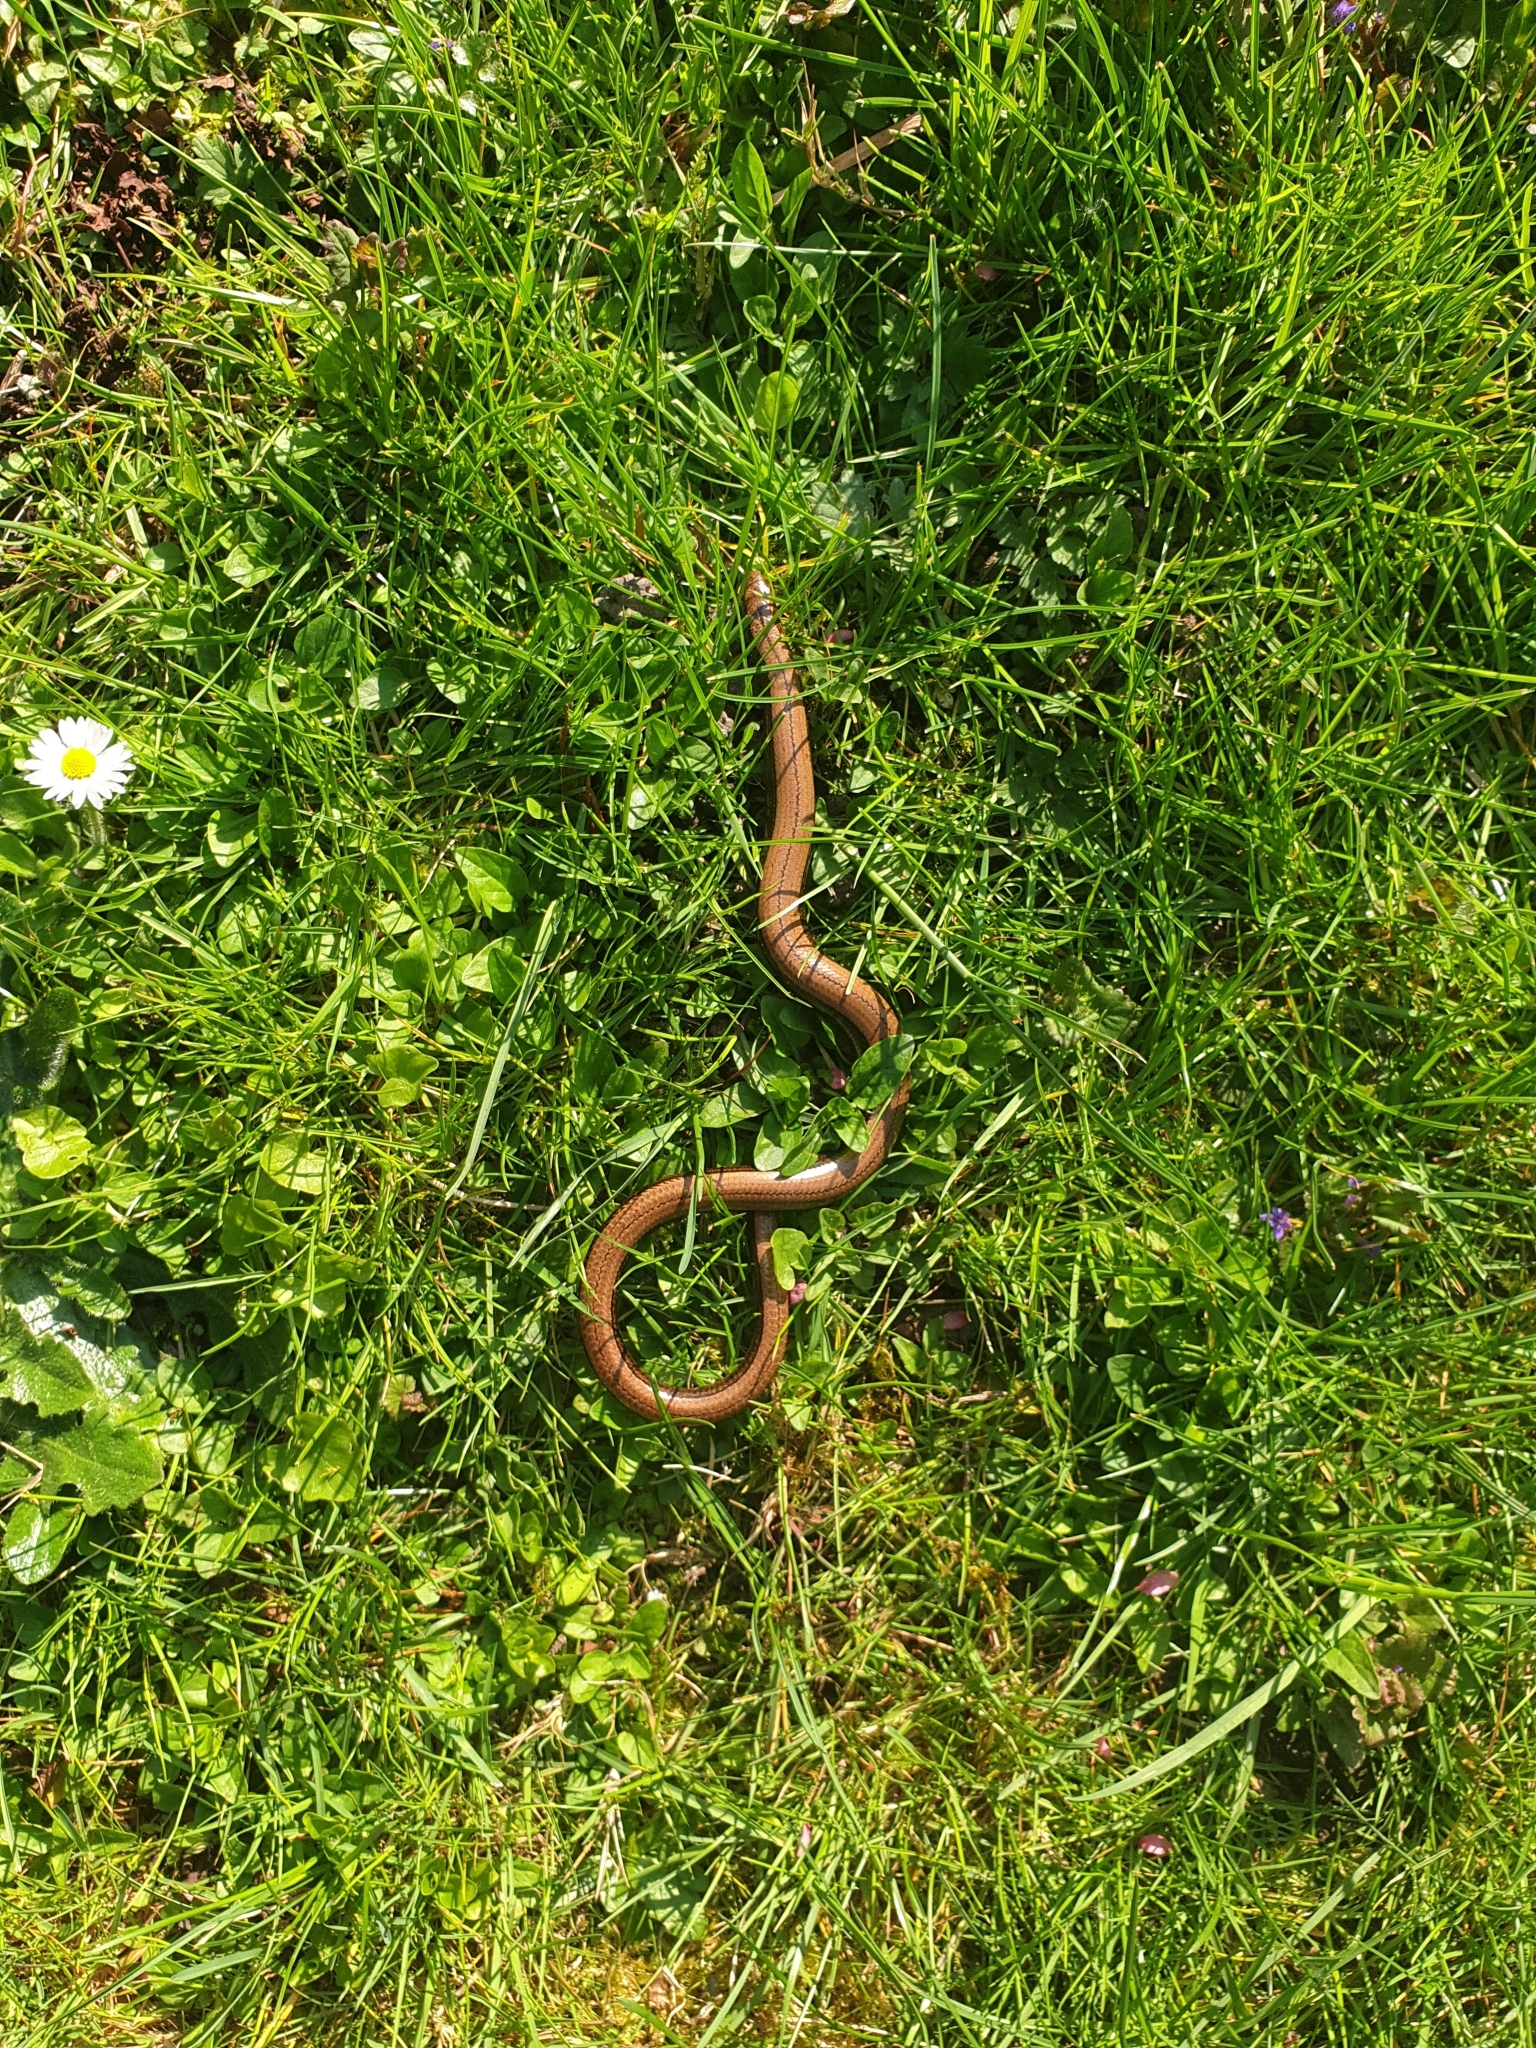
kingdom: Animalia
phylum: Chordata
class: Squamata
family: Anguidae
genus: Anguis
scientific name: Anguis fragilis
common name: Slow worm
